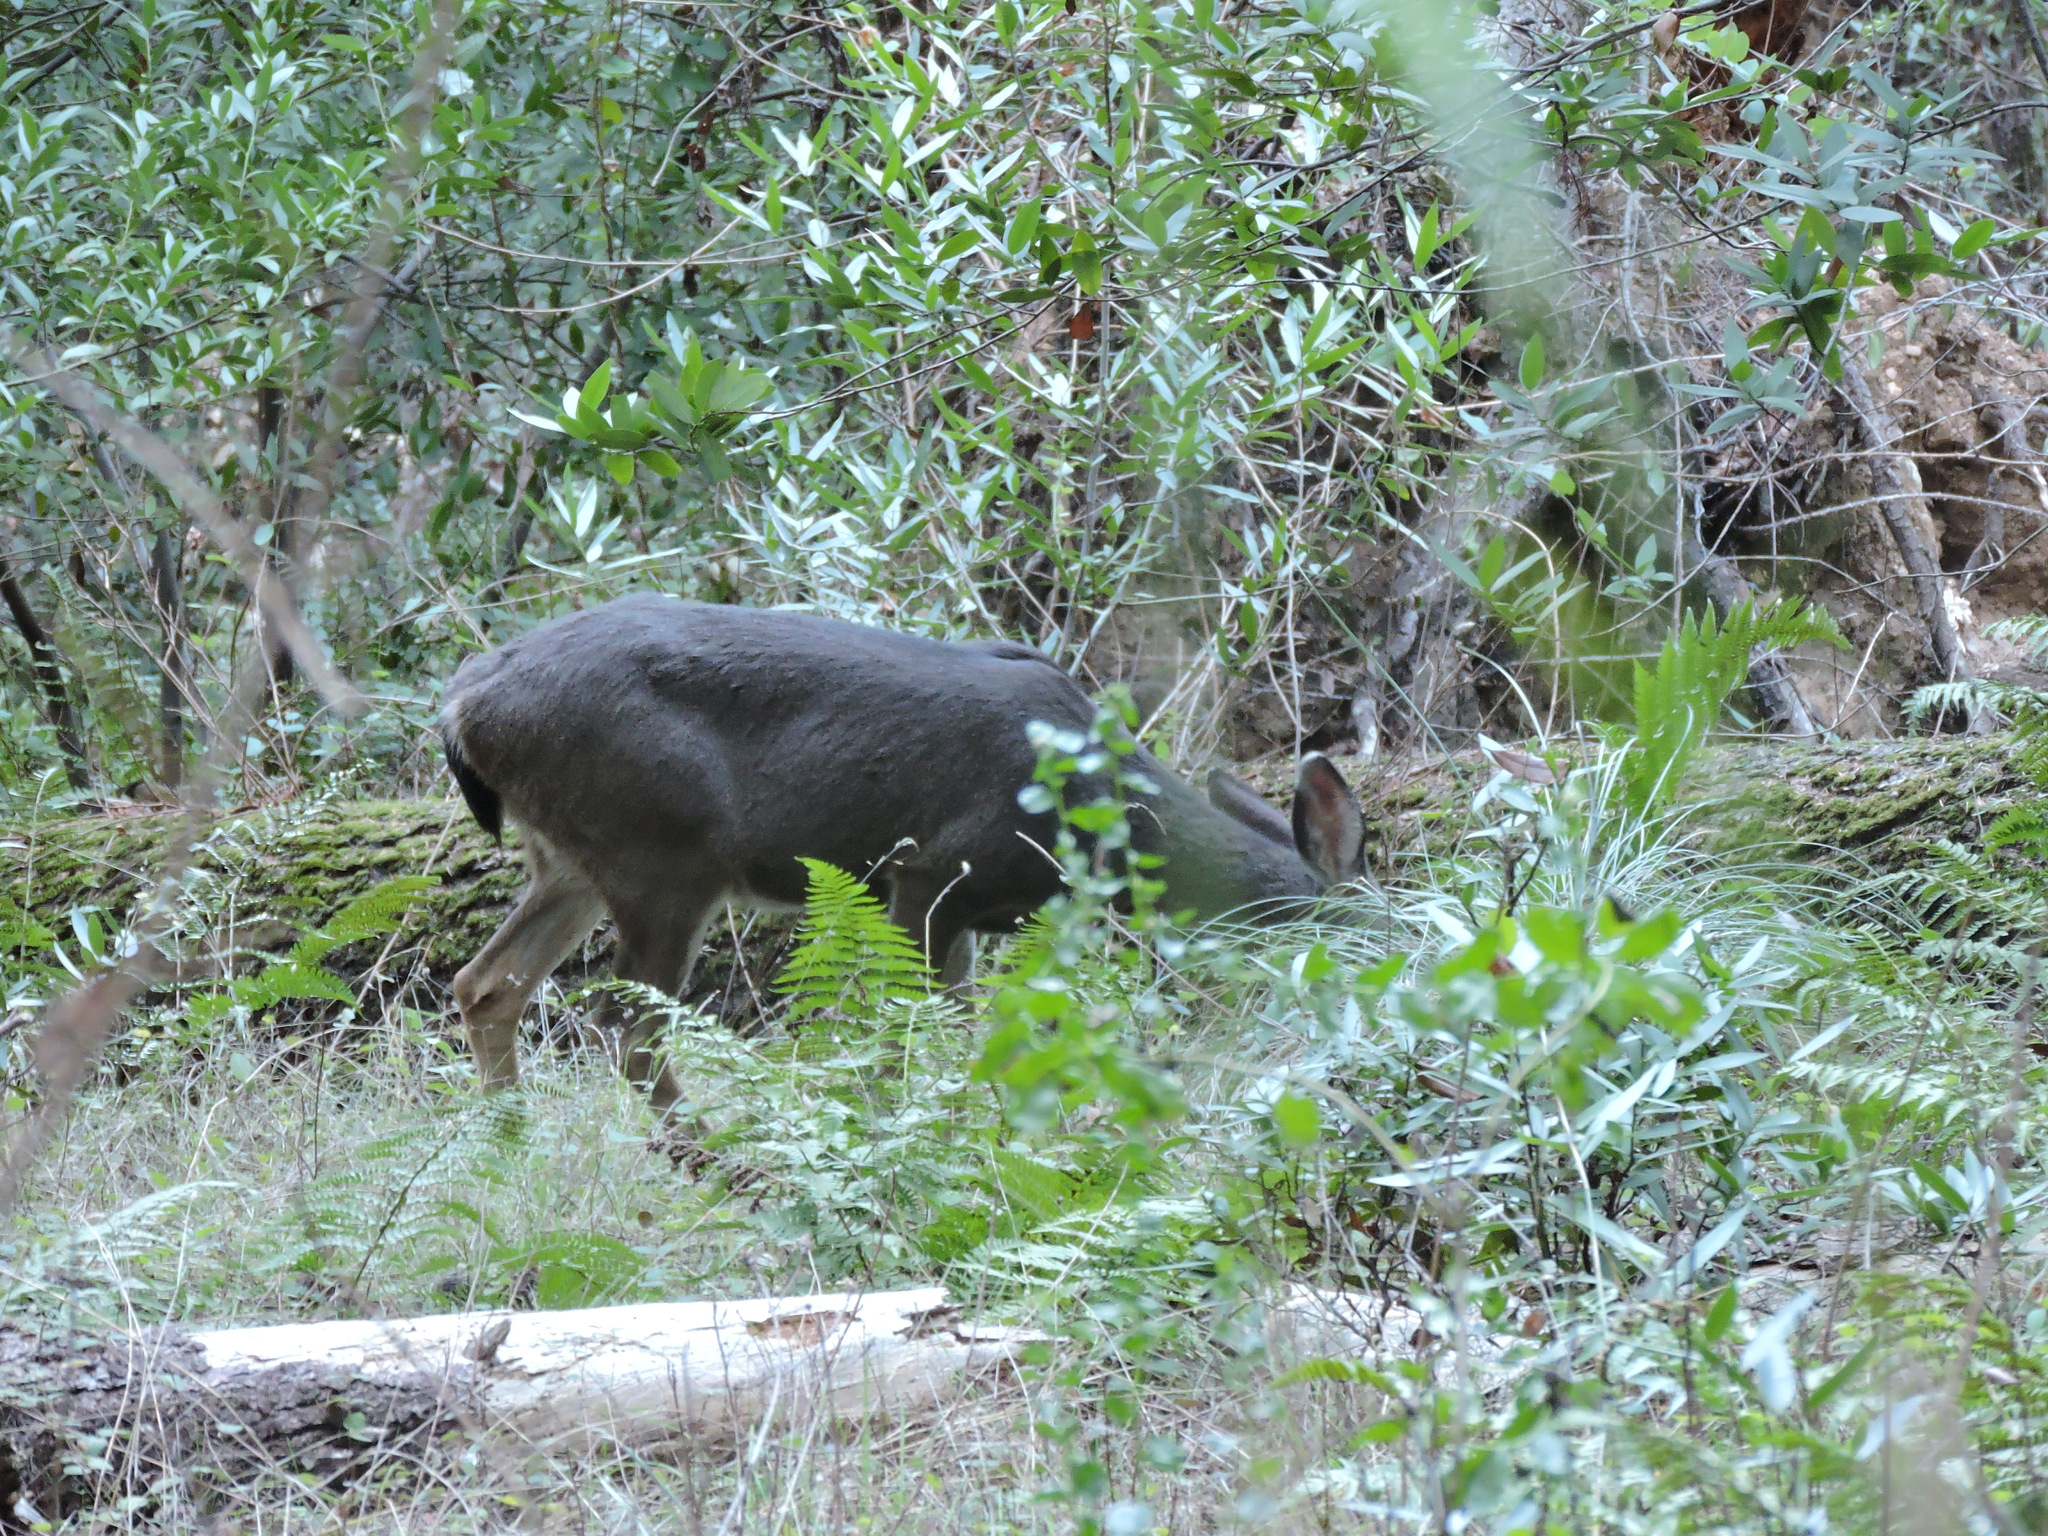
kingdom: Animalia
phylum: Chordata
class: Mammalia
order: Artiodactyla
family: Cervidae
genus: Odocoileus
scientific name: Odocoileus hemionus
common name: Mule deer
